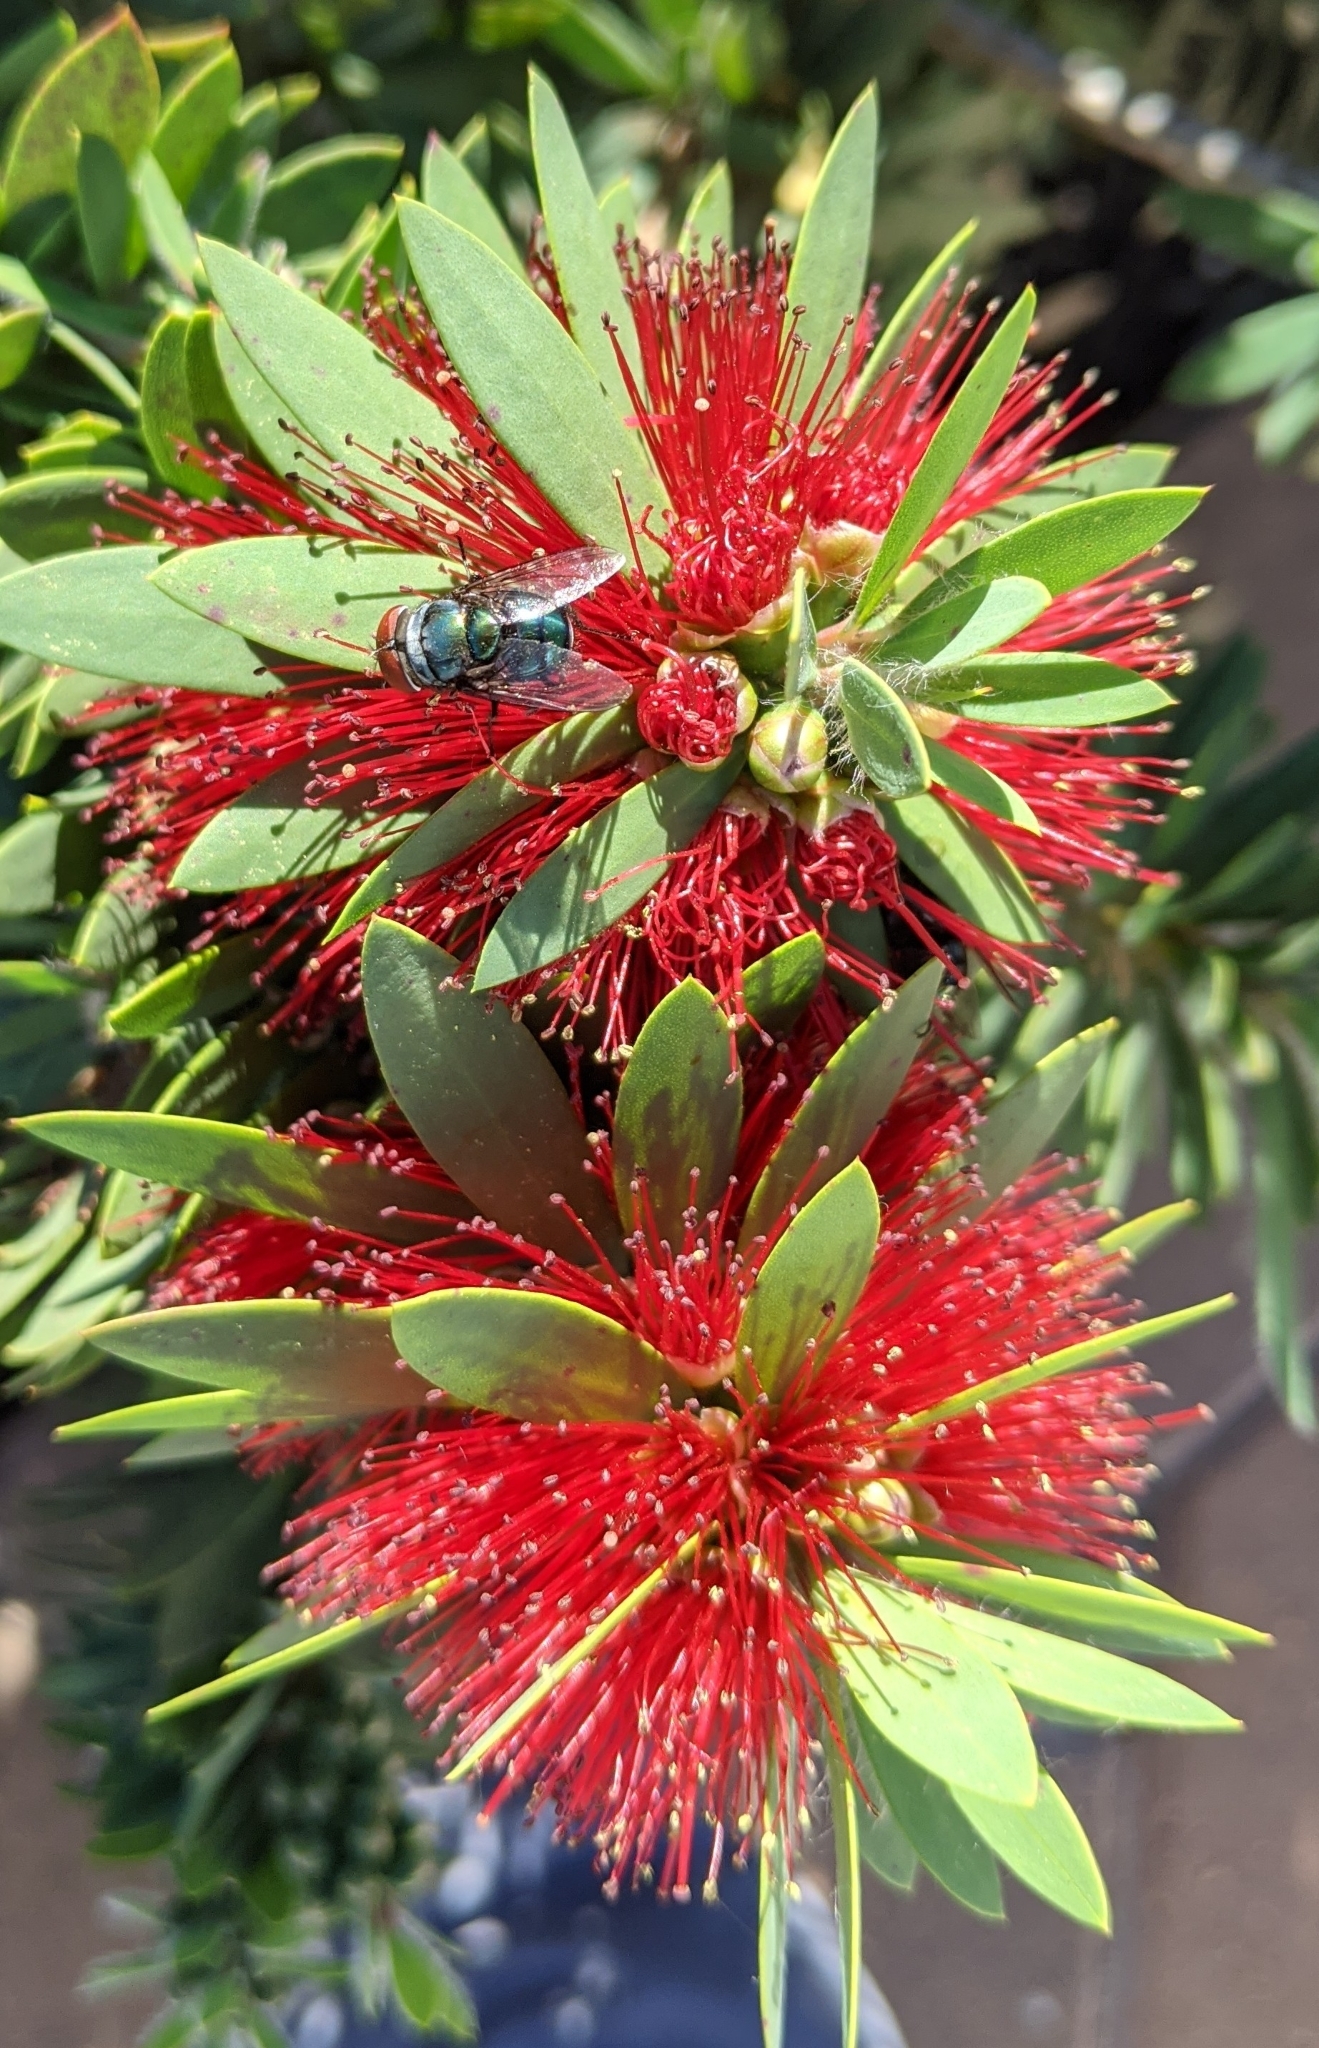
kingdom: Animalia
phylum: Arthropoda
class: Insecta
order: Diptera
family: Calliphoridae
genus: Chrysomya
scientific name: Chrysomya megacephala
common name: Blow fly
